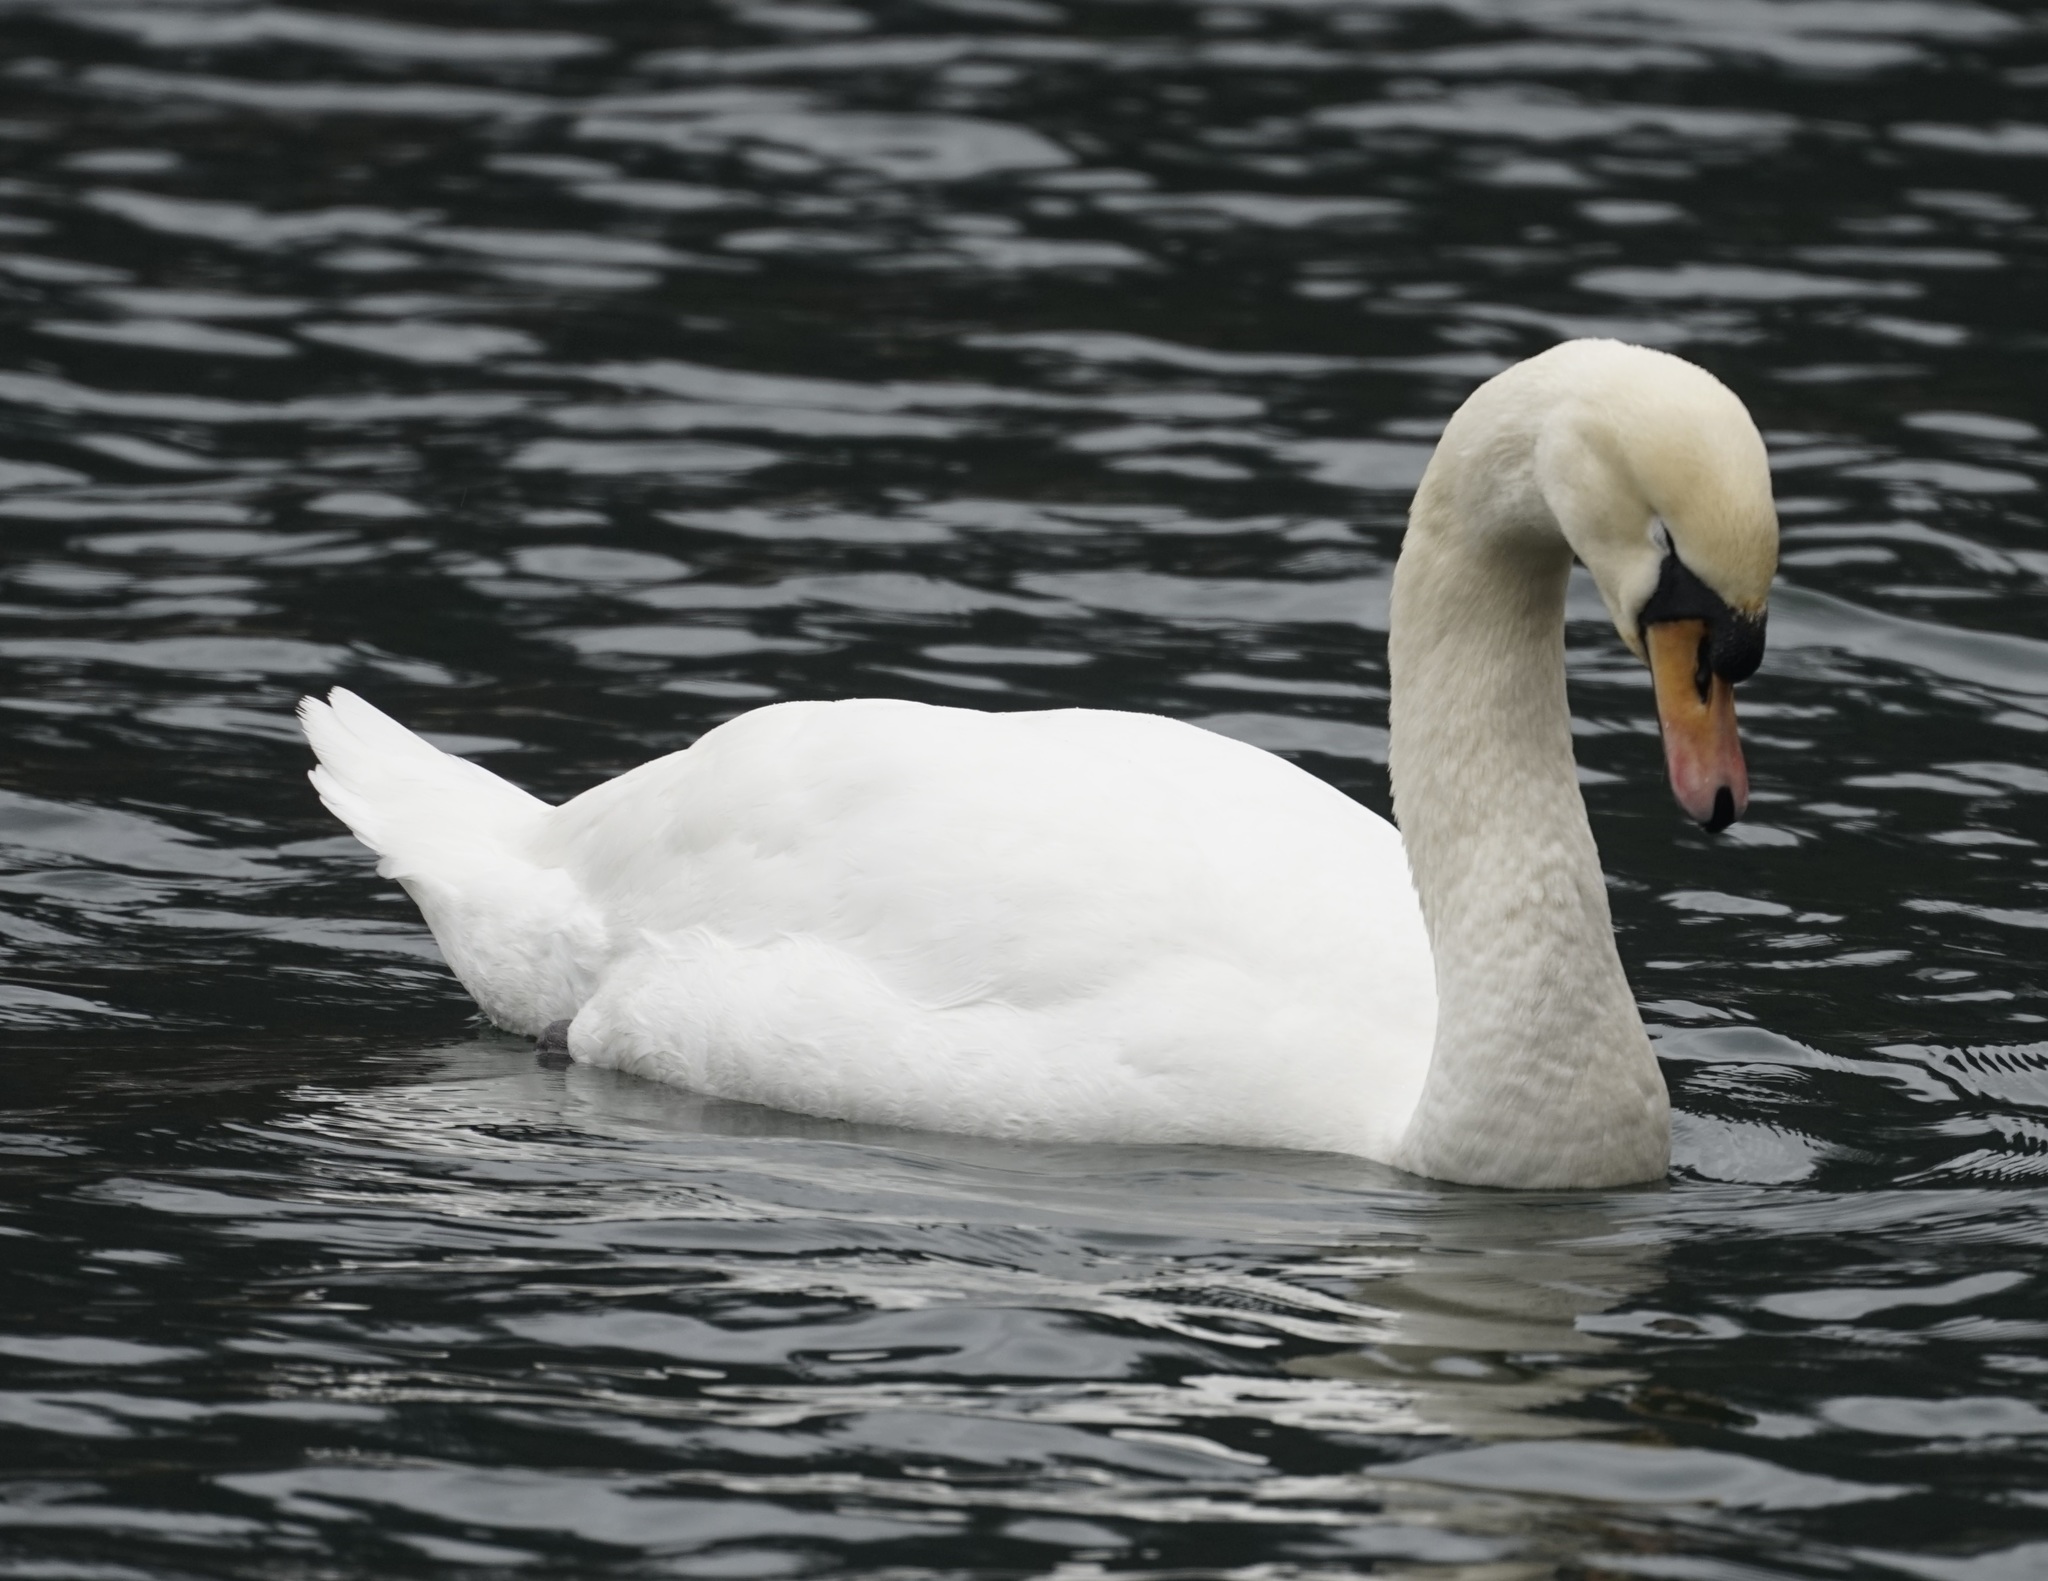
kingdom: Animalia
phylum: Chordata
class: Aves
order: Anseriformes
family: Anatidae
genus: Cygnus
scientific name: Cygnus olor
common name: Mute swan
